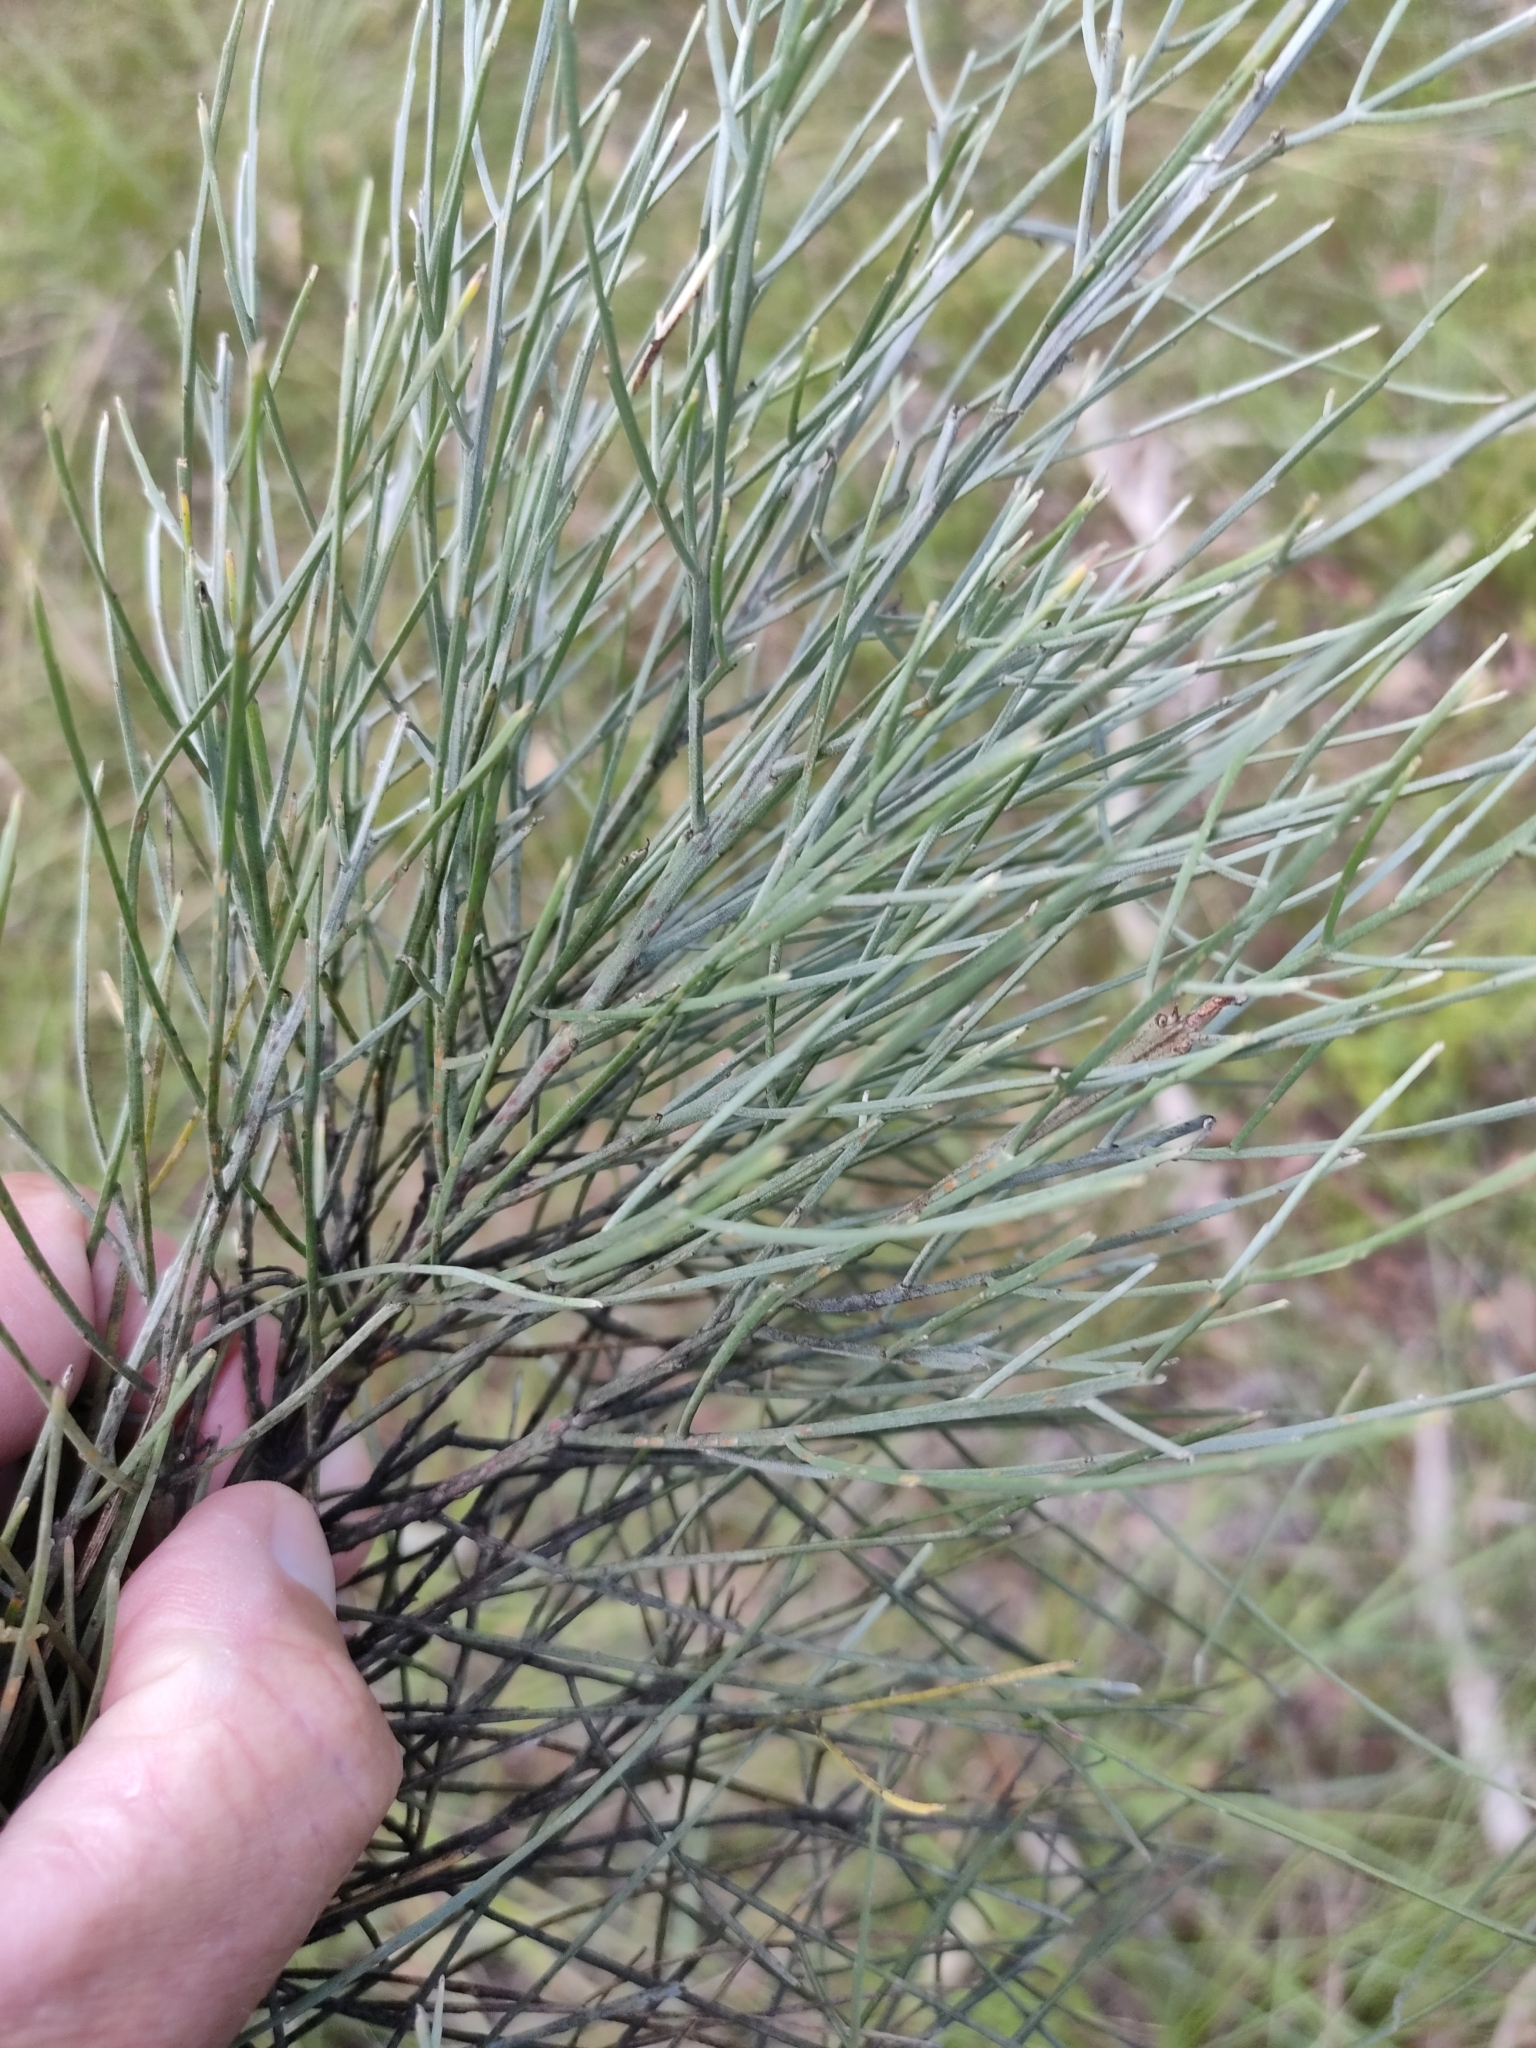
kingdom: Plantae
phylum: Tracheophyta
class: Magnoliopsida
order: Fabales
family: Fabaceae
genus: Jacksonia
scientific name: Jacksonia scoparia
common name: Dogwood
